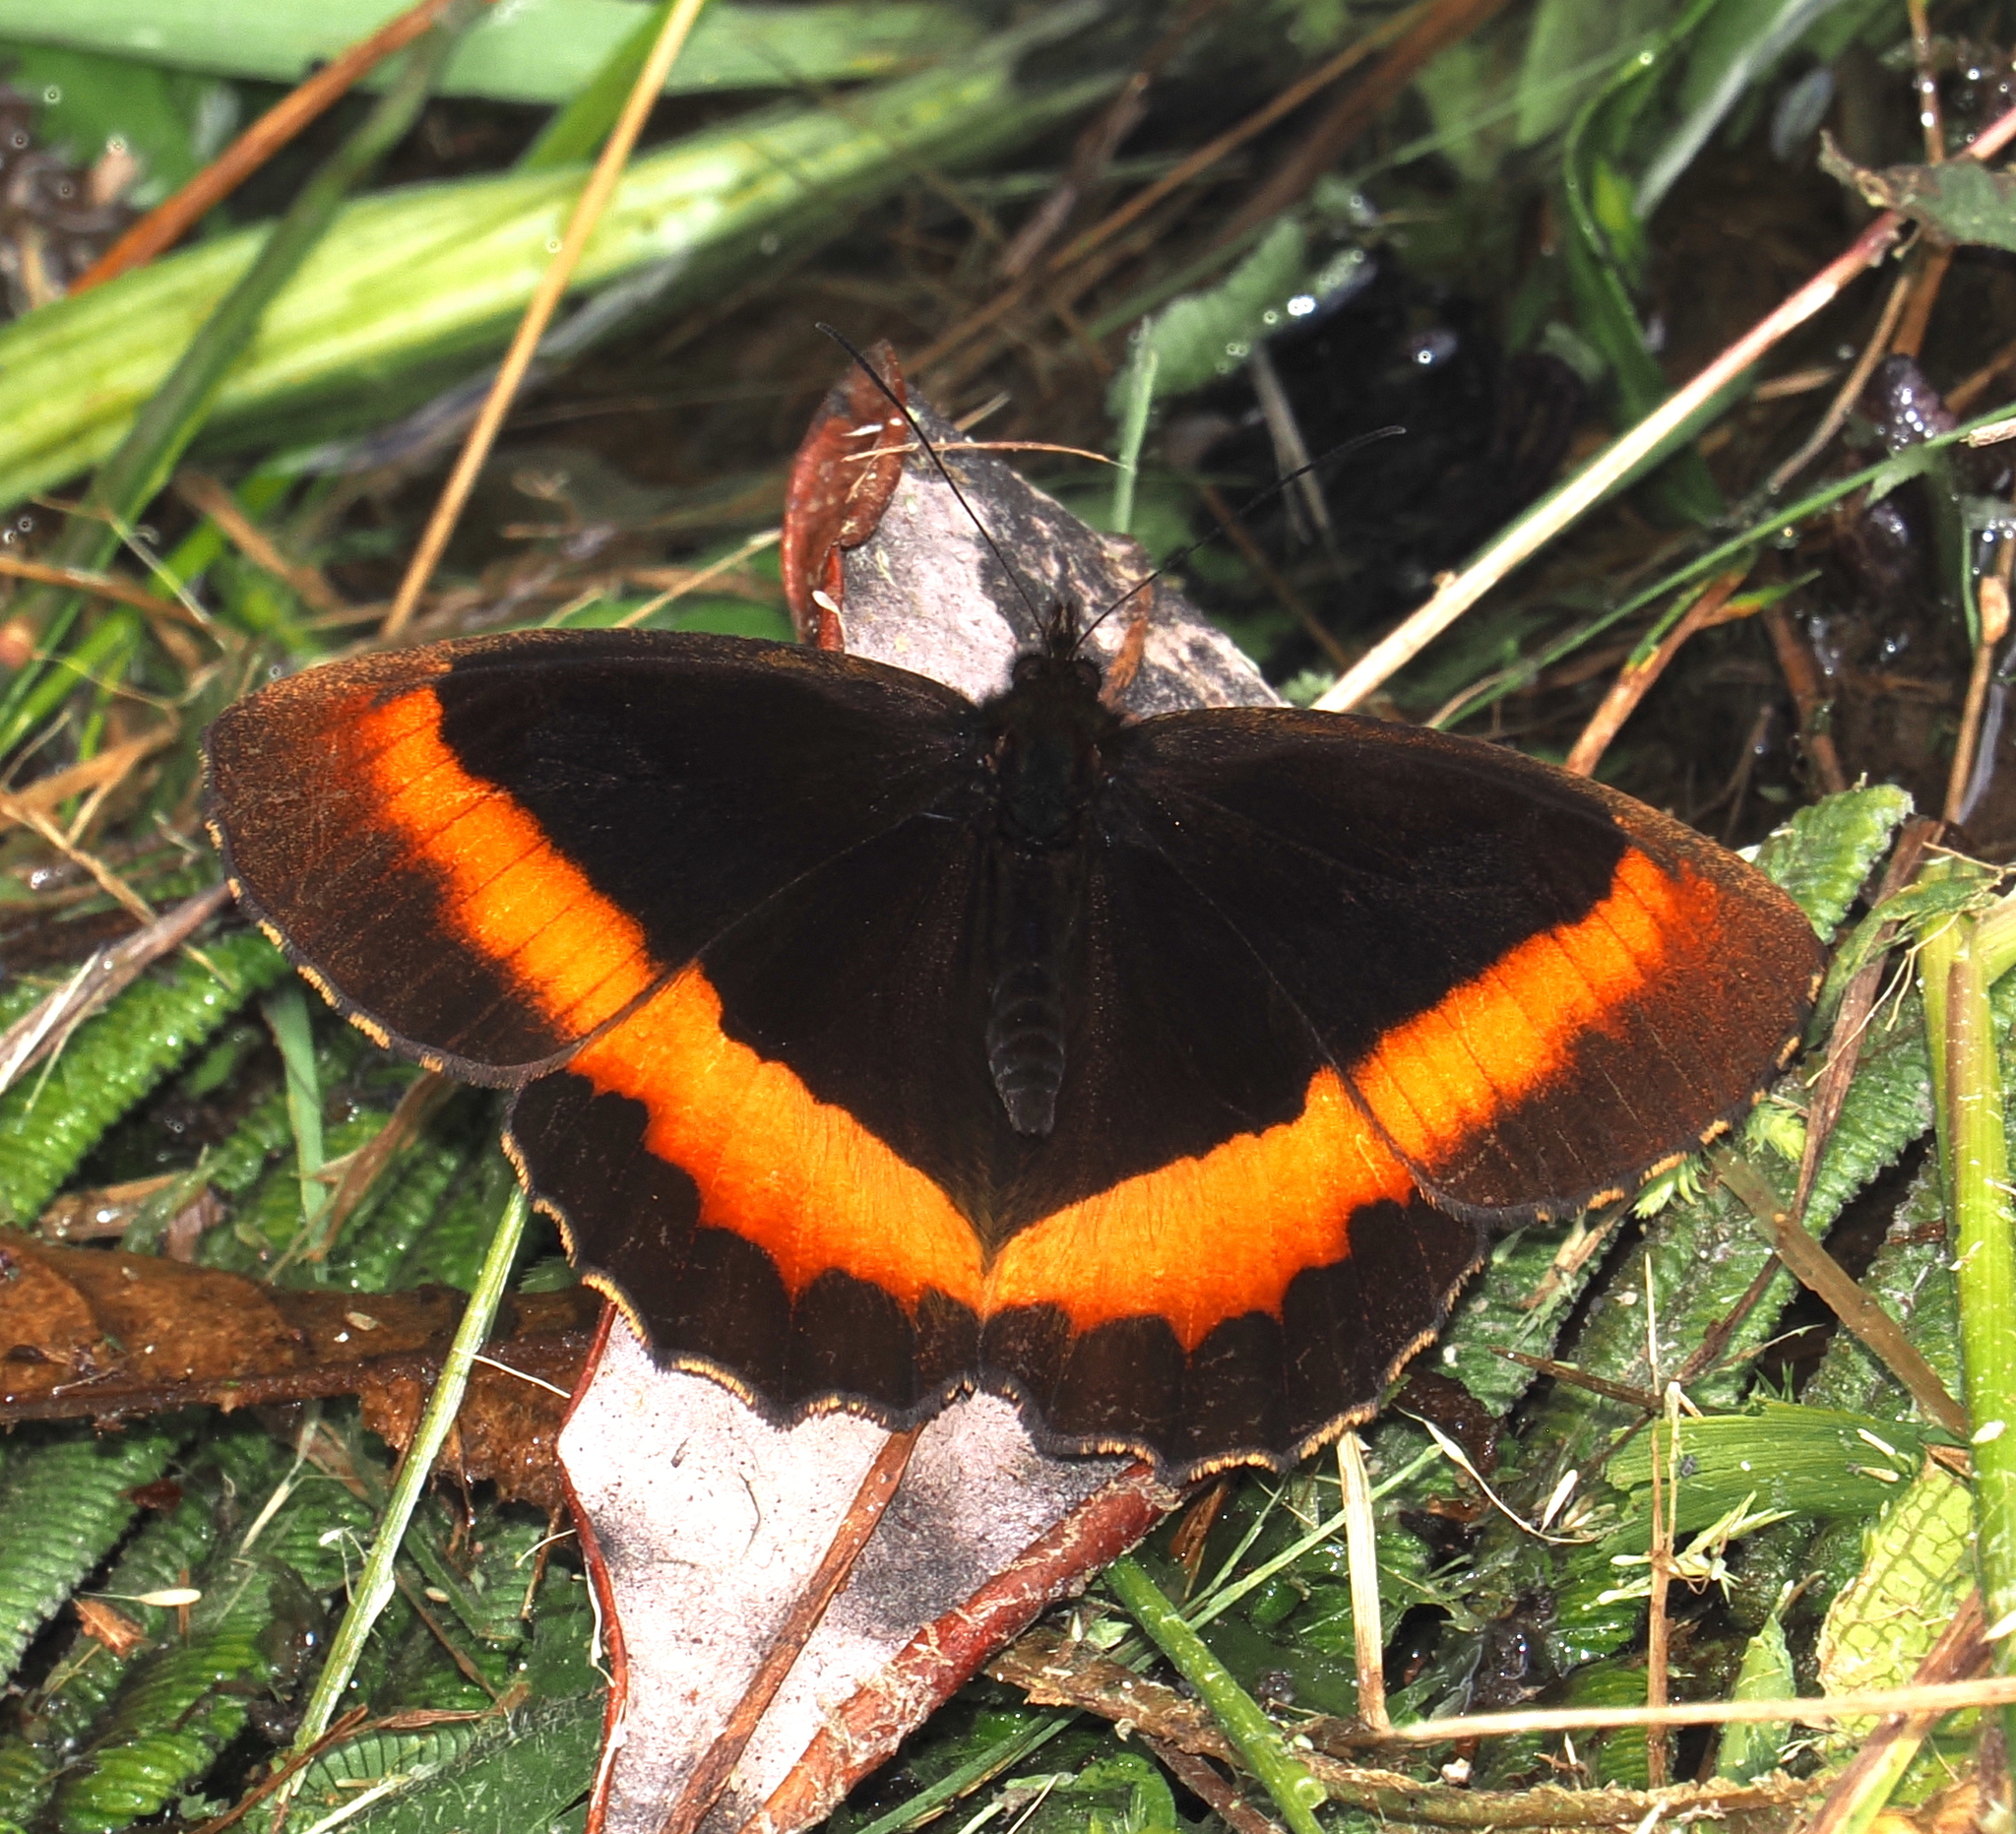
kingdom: Animalia
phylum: Arthropoda
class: Insecta
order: Lepidoptera
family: Nymphalidae
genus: Pedaliodes
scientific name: Pedaliodes wilhelmi
